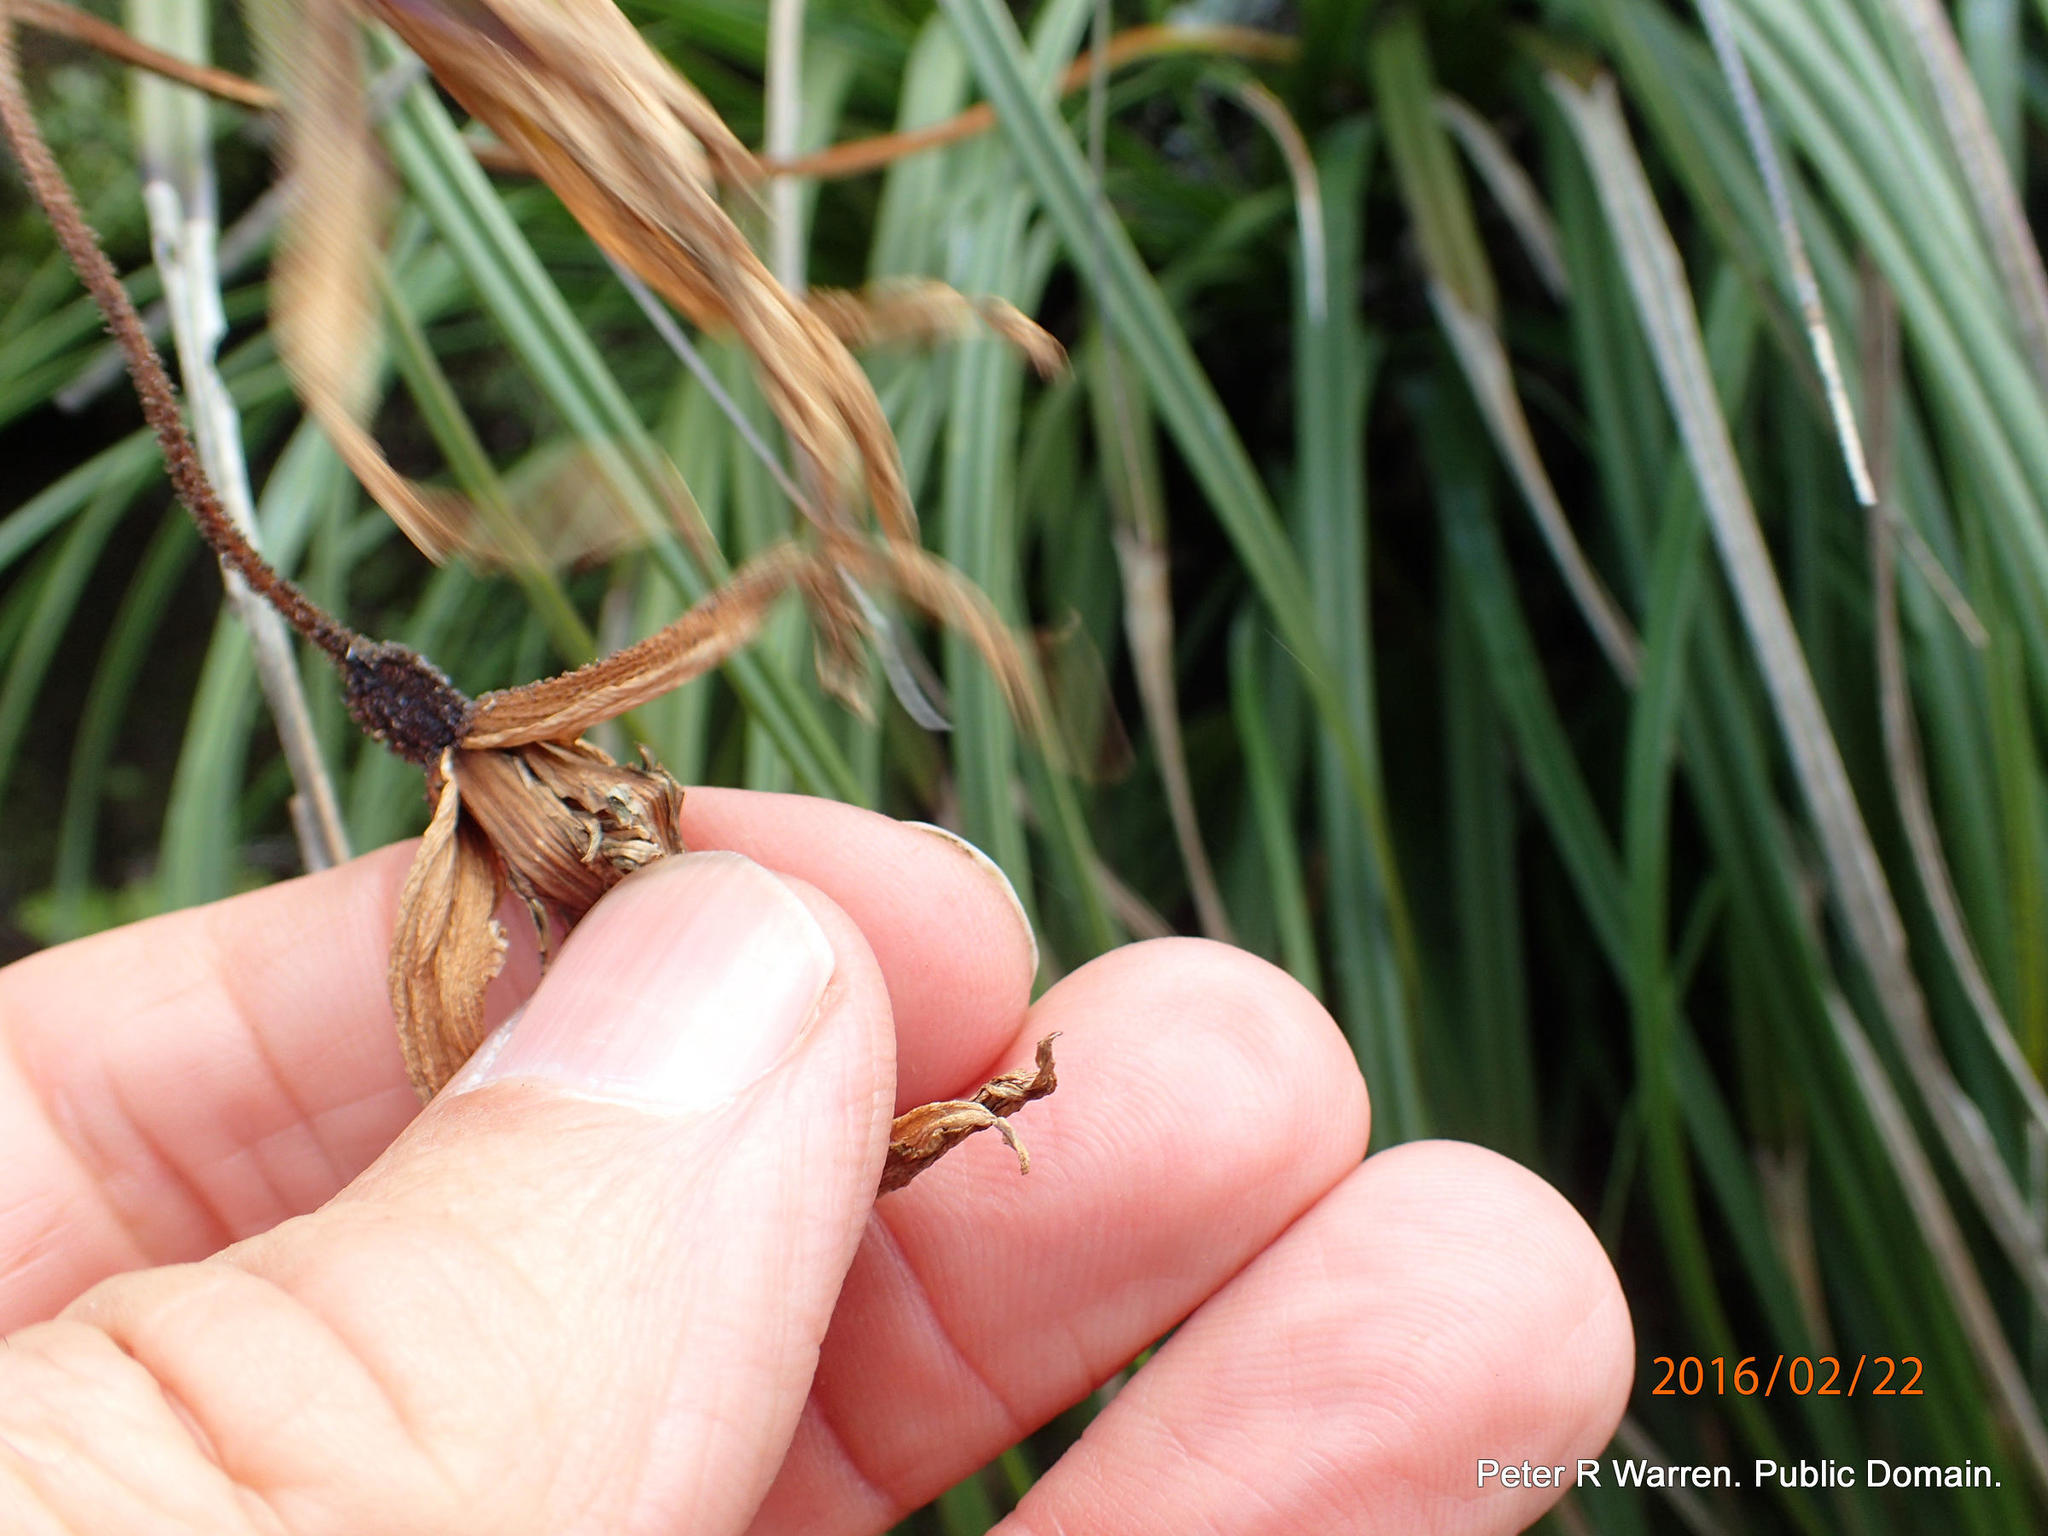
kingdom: Plantae
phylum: Tracheophyta
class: Liliopsida
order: Pandanales
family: Velloziaceae
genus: Xerophyta
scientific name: Xerophyta viscosa
